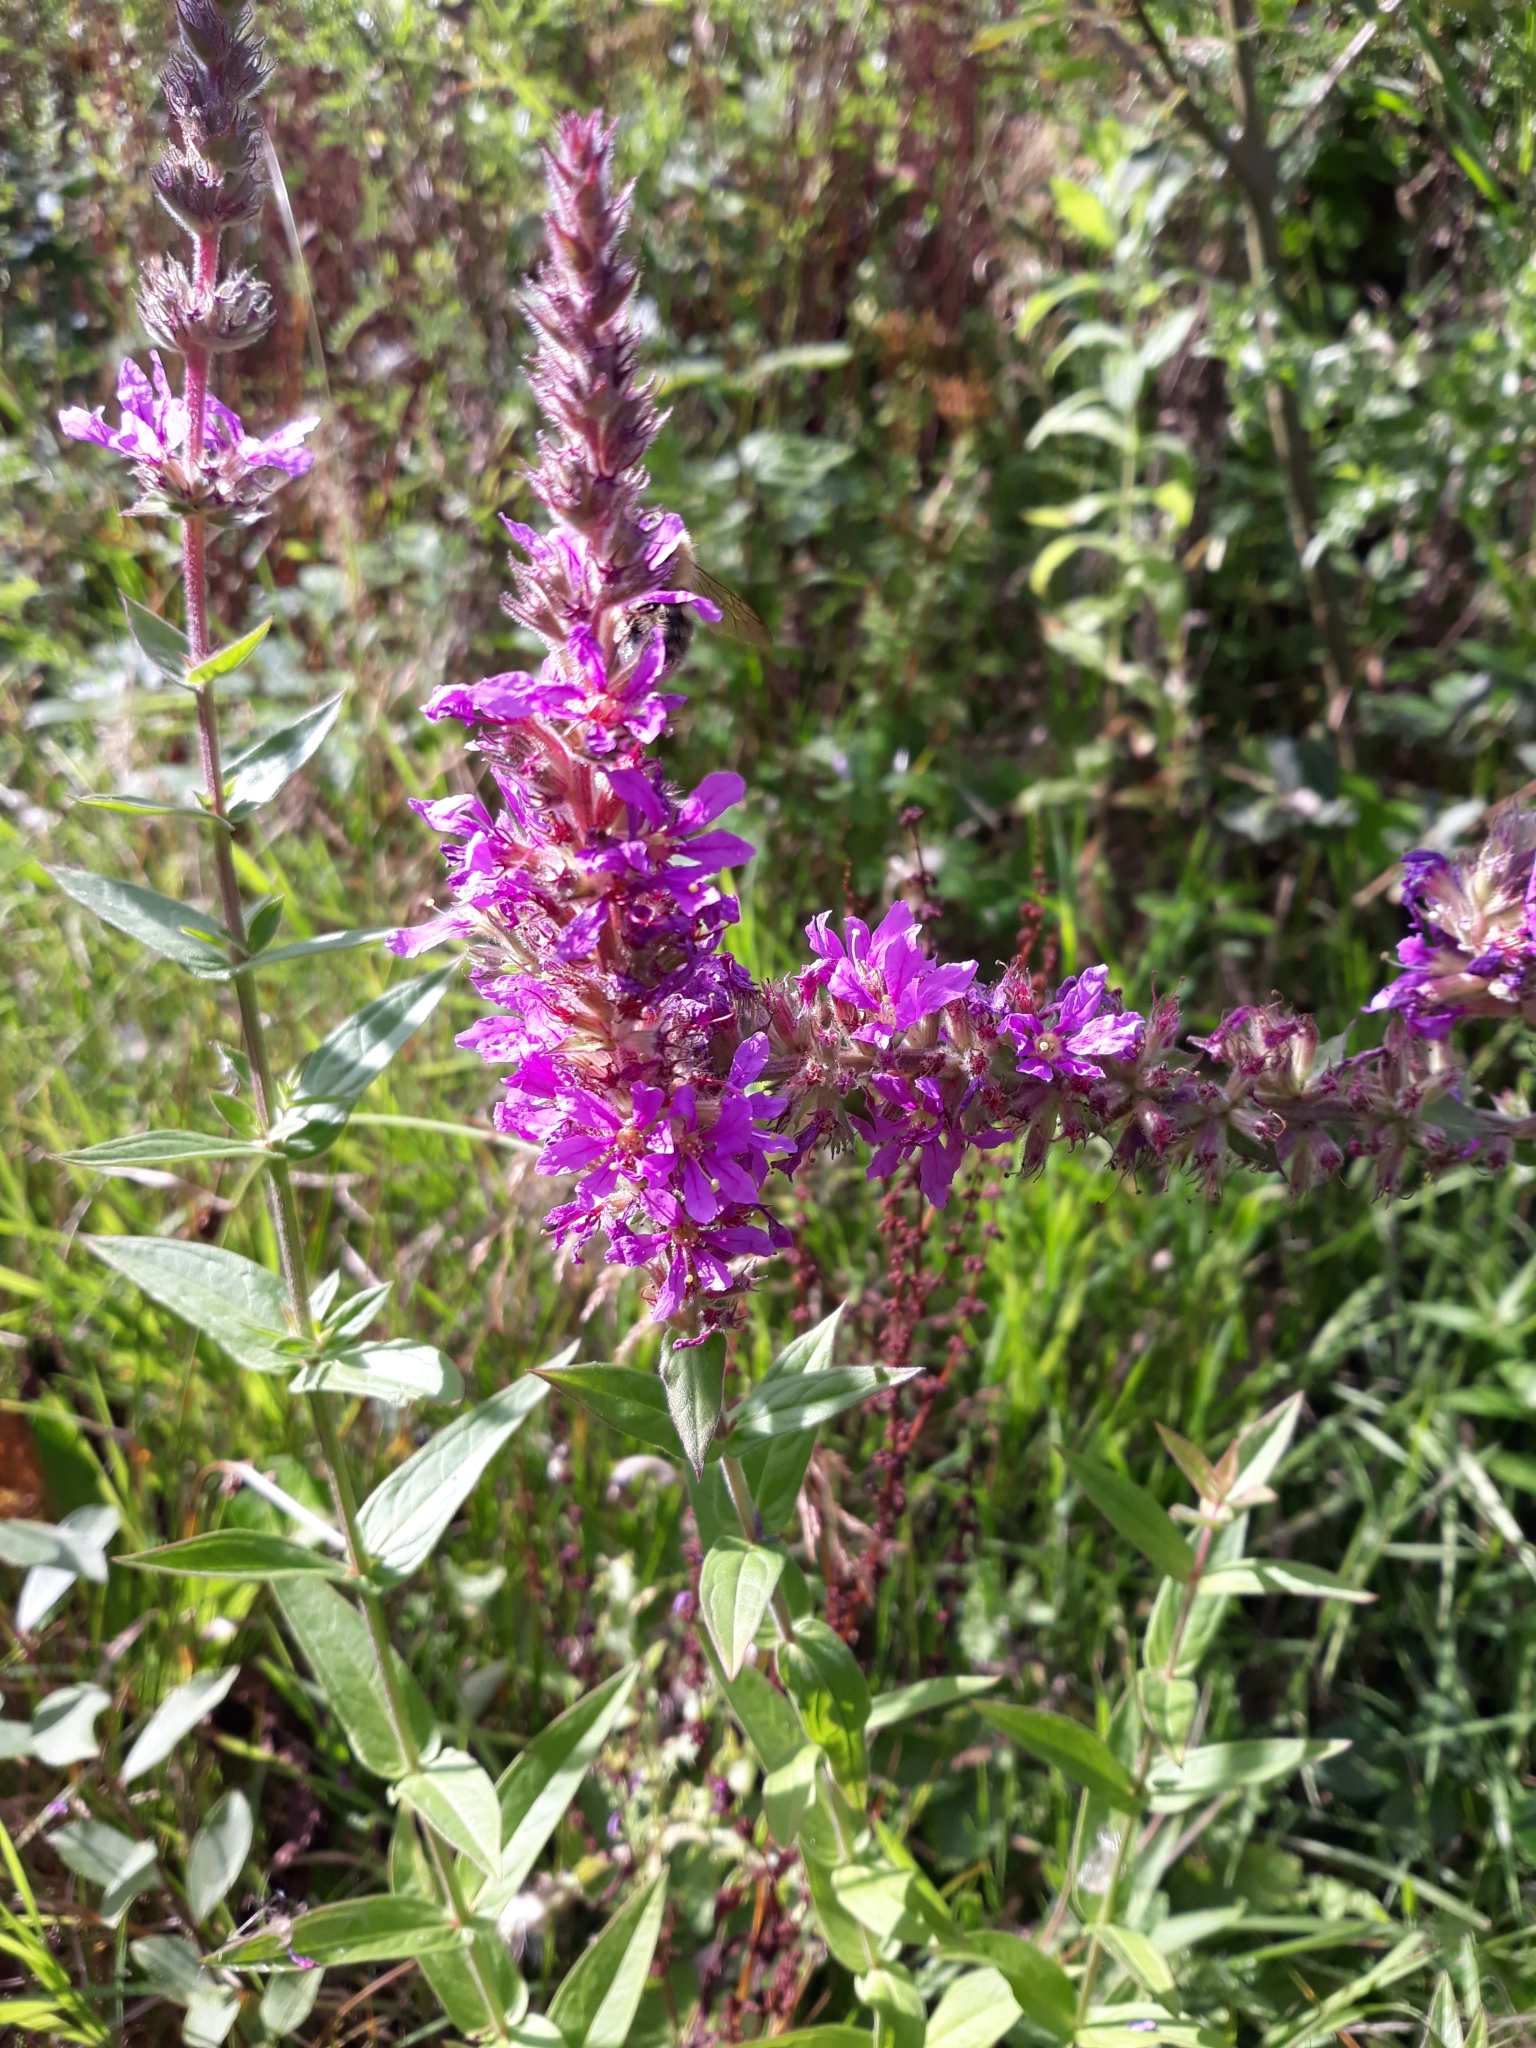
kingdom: Plantae
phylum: Tracheophyta
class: Magnoliopsida
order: Myrtales
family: Lythraceae
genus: Lythrum
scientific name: Lythrum salicaria
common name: Purple loosestrife
